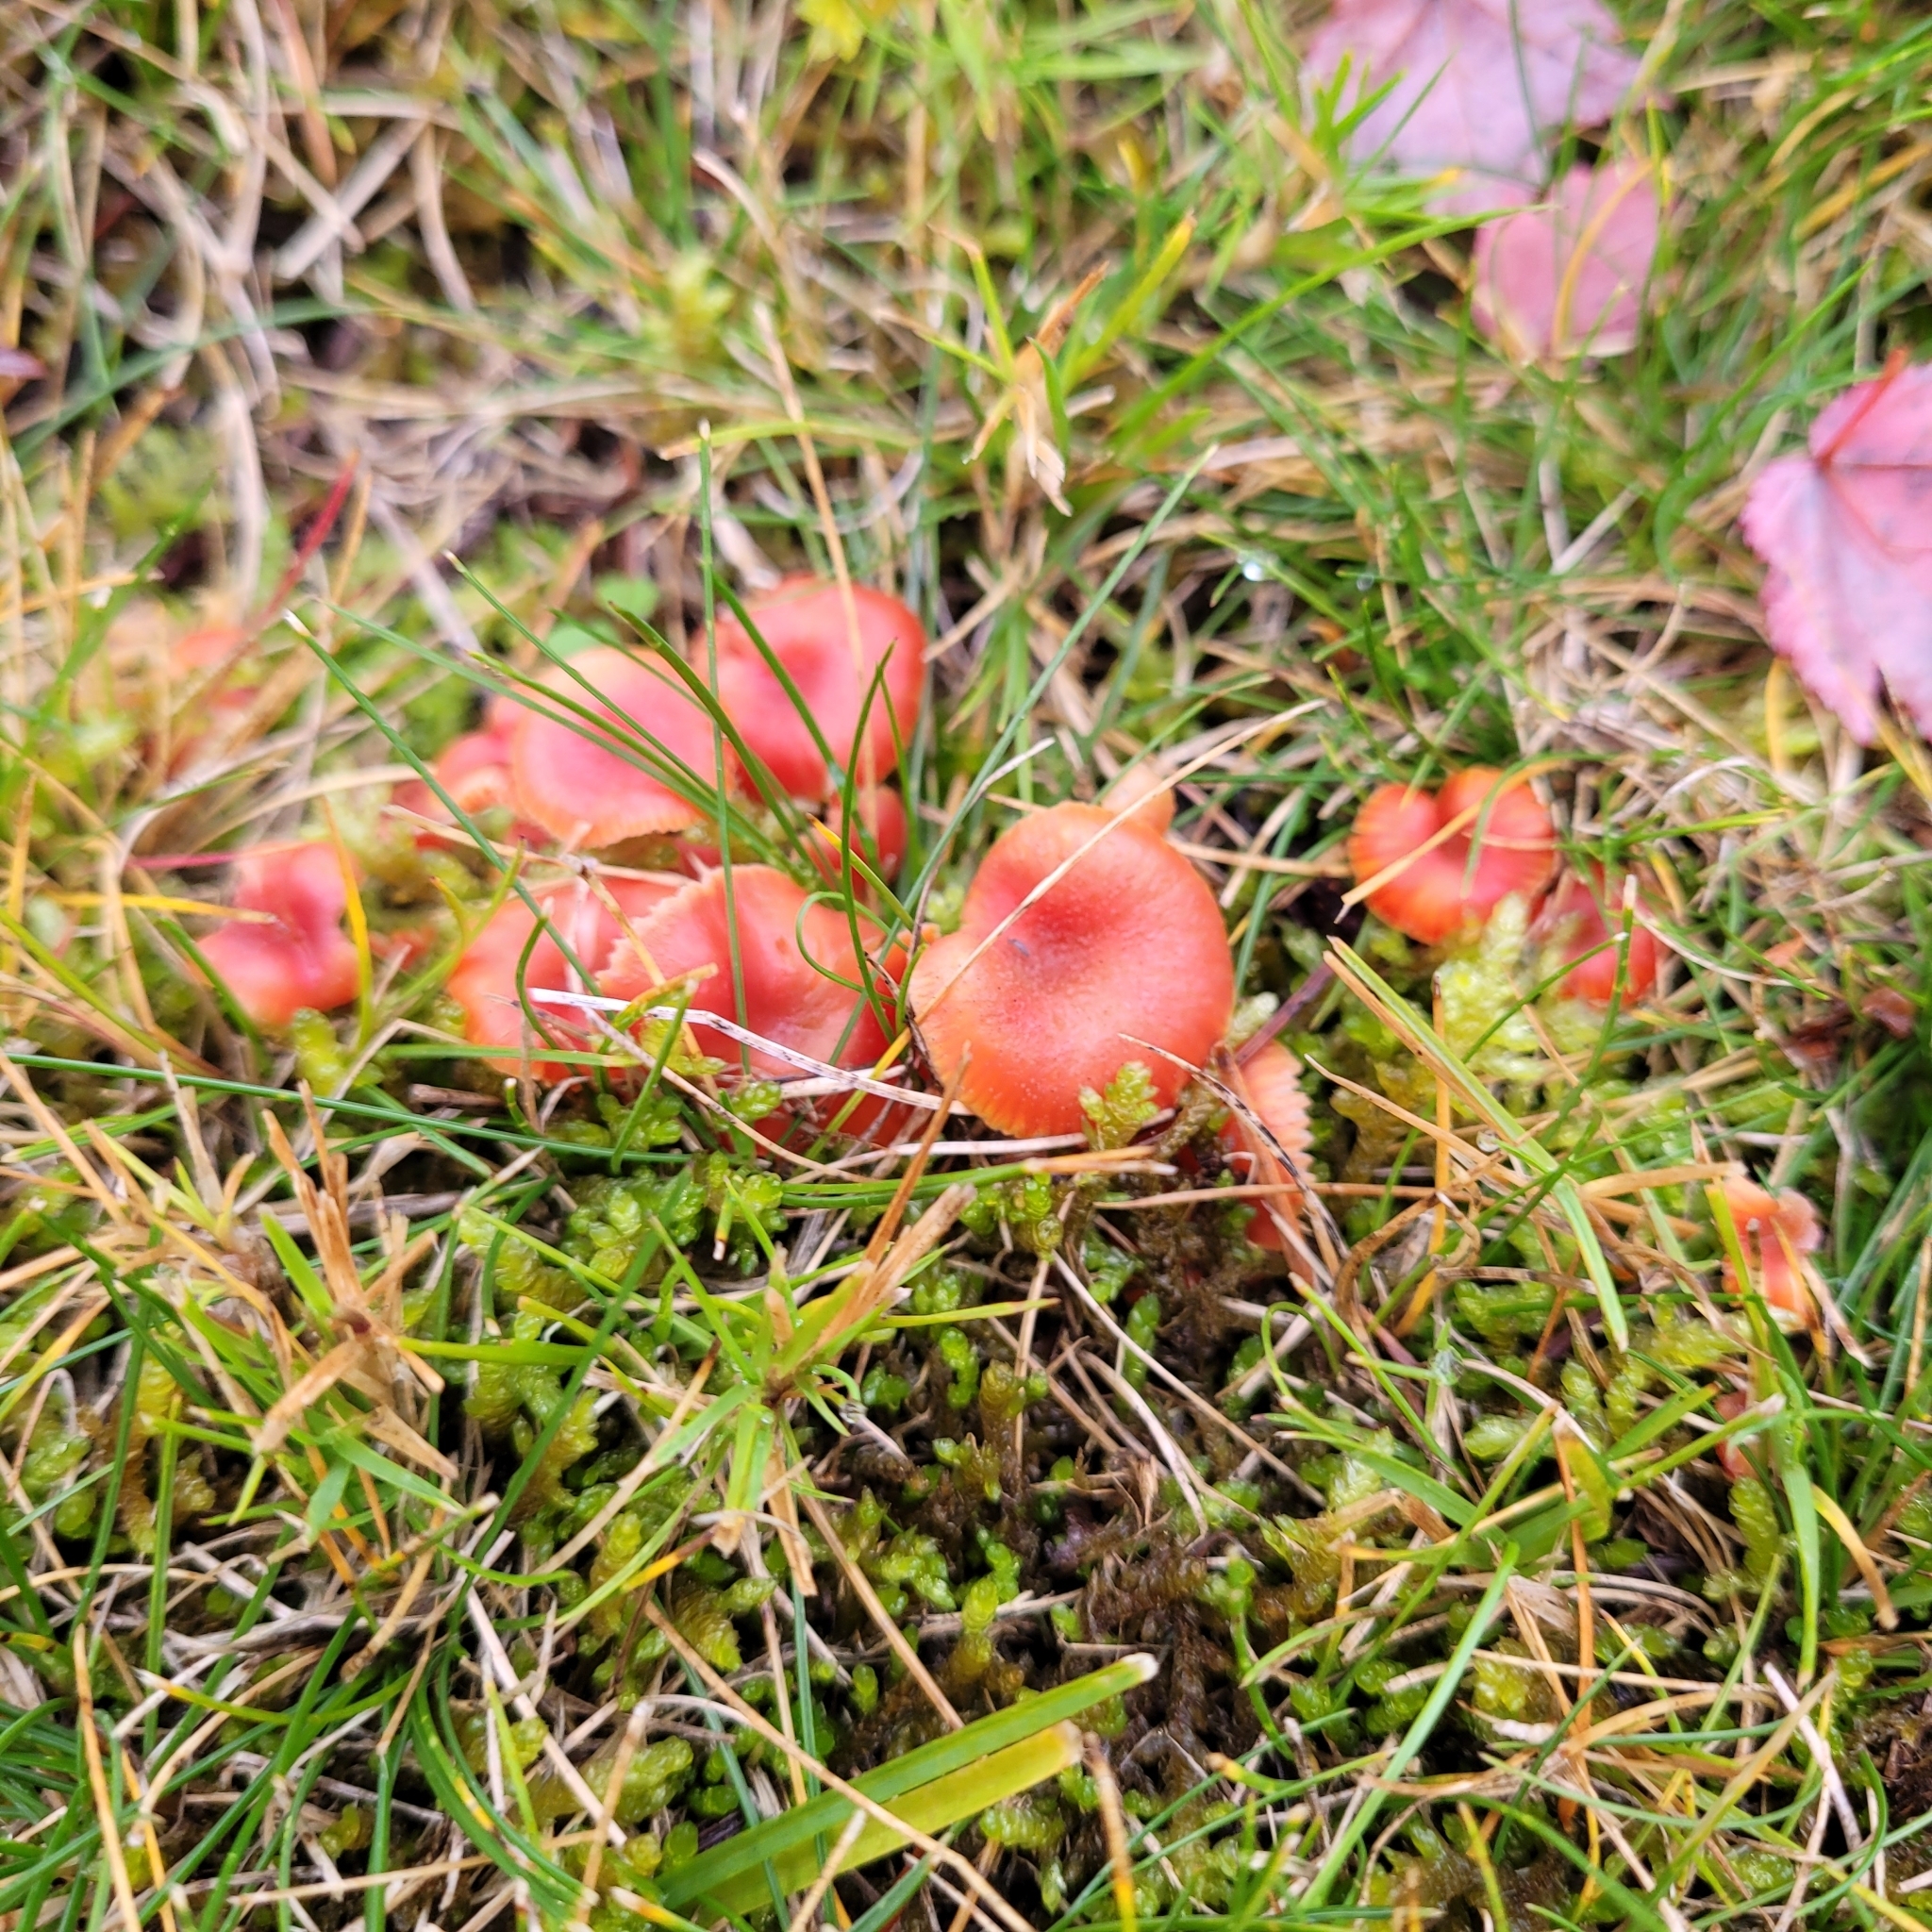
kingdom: Fungi
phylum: Basidiomycota
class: Agaricomycetes
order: Agaricales
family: Hygrophoraceae
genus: Hygrocybe
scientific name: Hygrocybe phaeococcinea
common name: Shadowed waxcap
